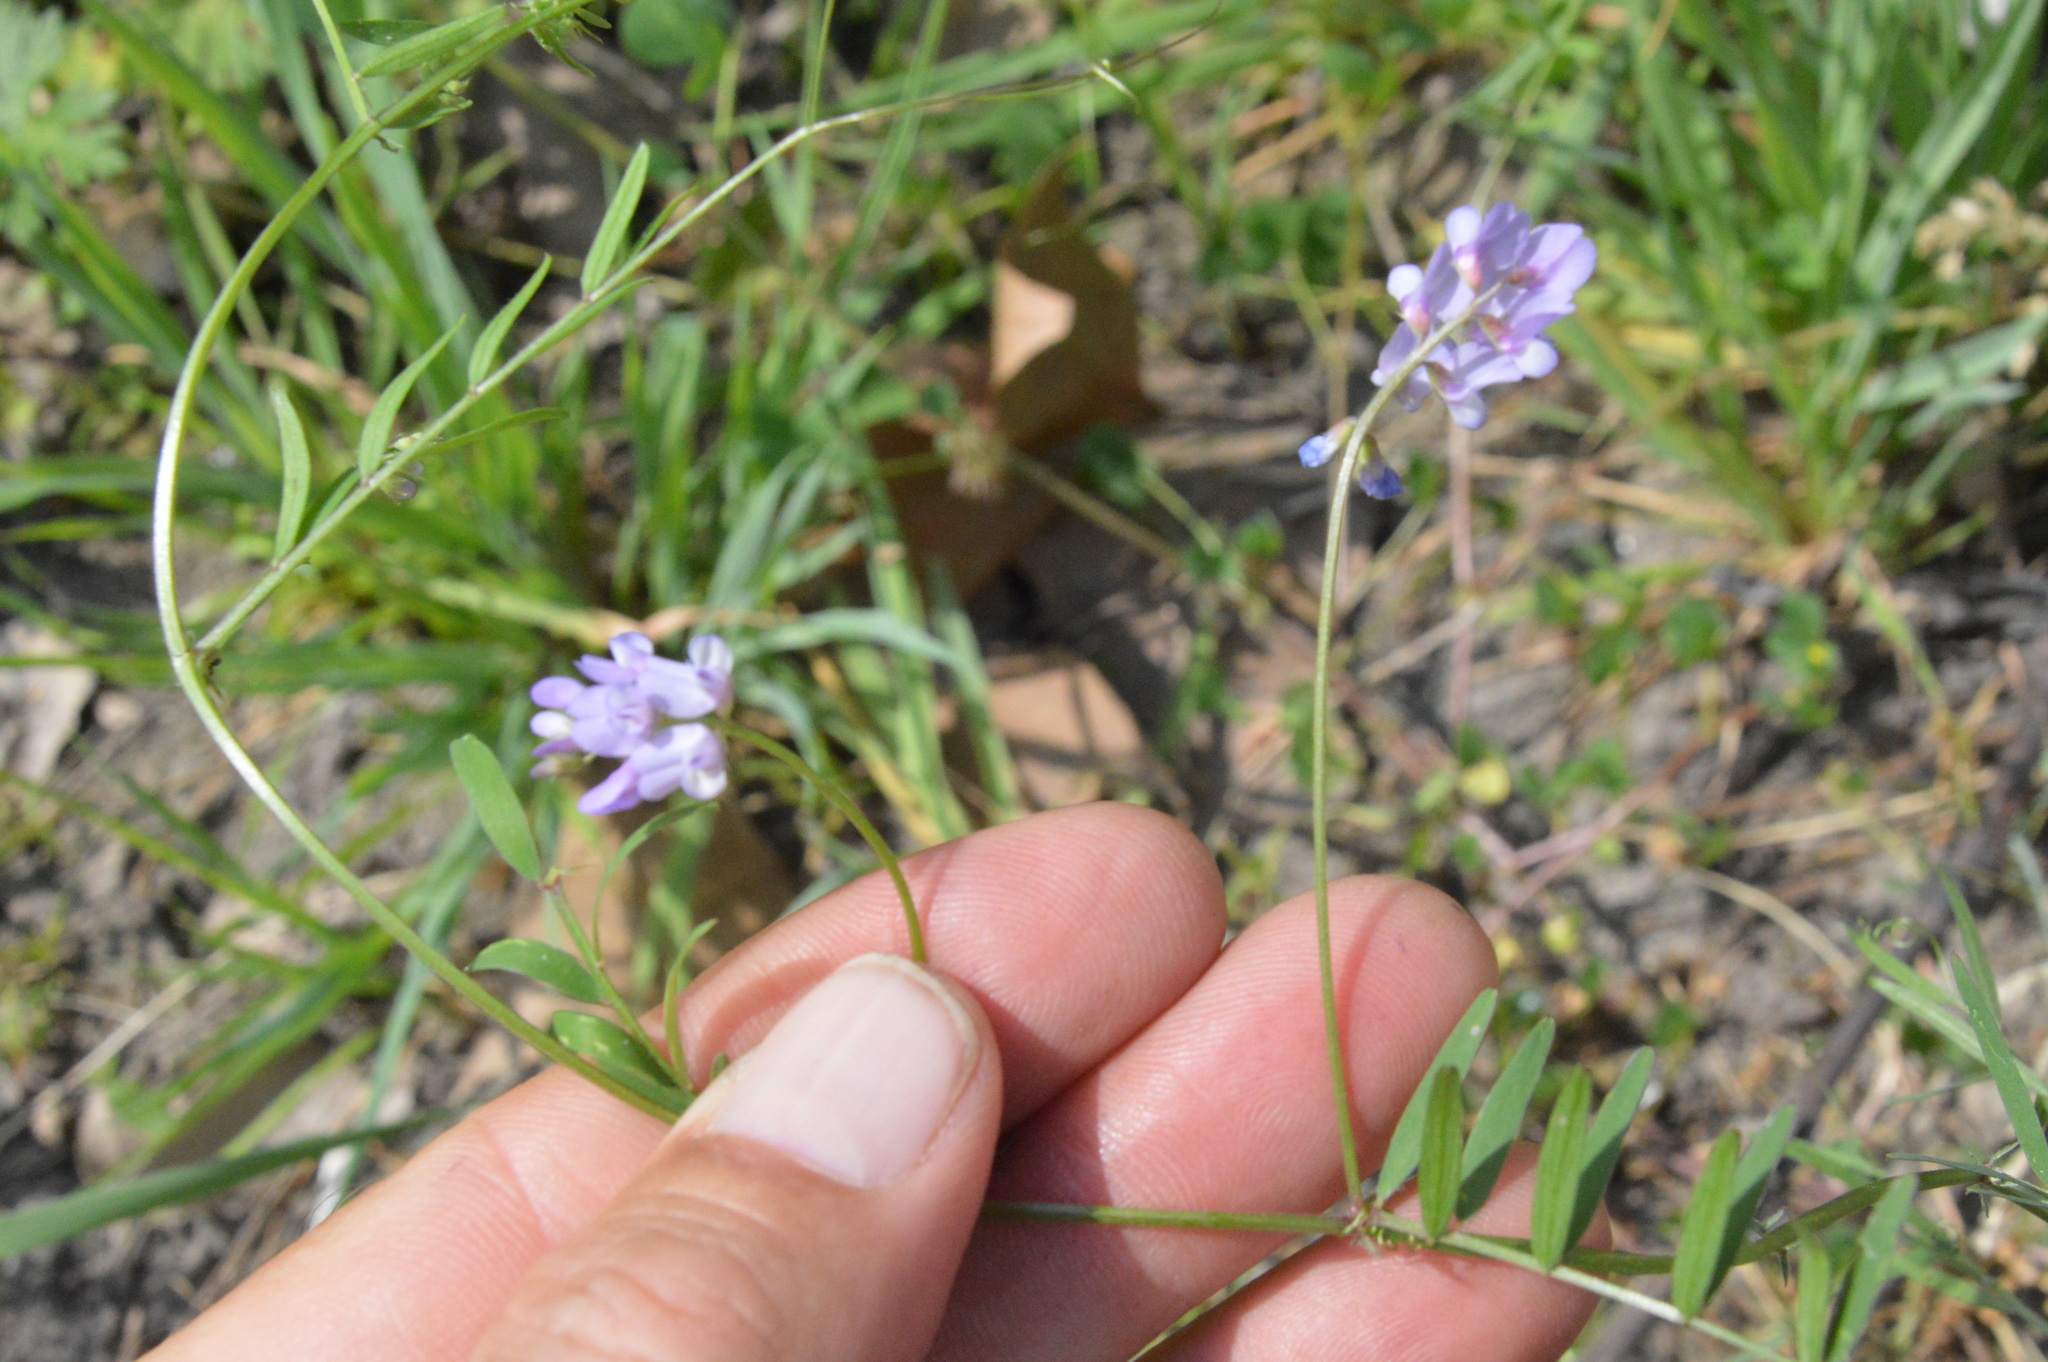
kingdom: Plantae
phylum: Tracheophyta
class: Magnoliopsida
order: Fabales
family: Fabaceae
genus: Vicia
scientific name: Vicia ludoviciana
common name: Louisiana vetch
